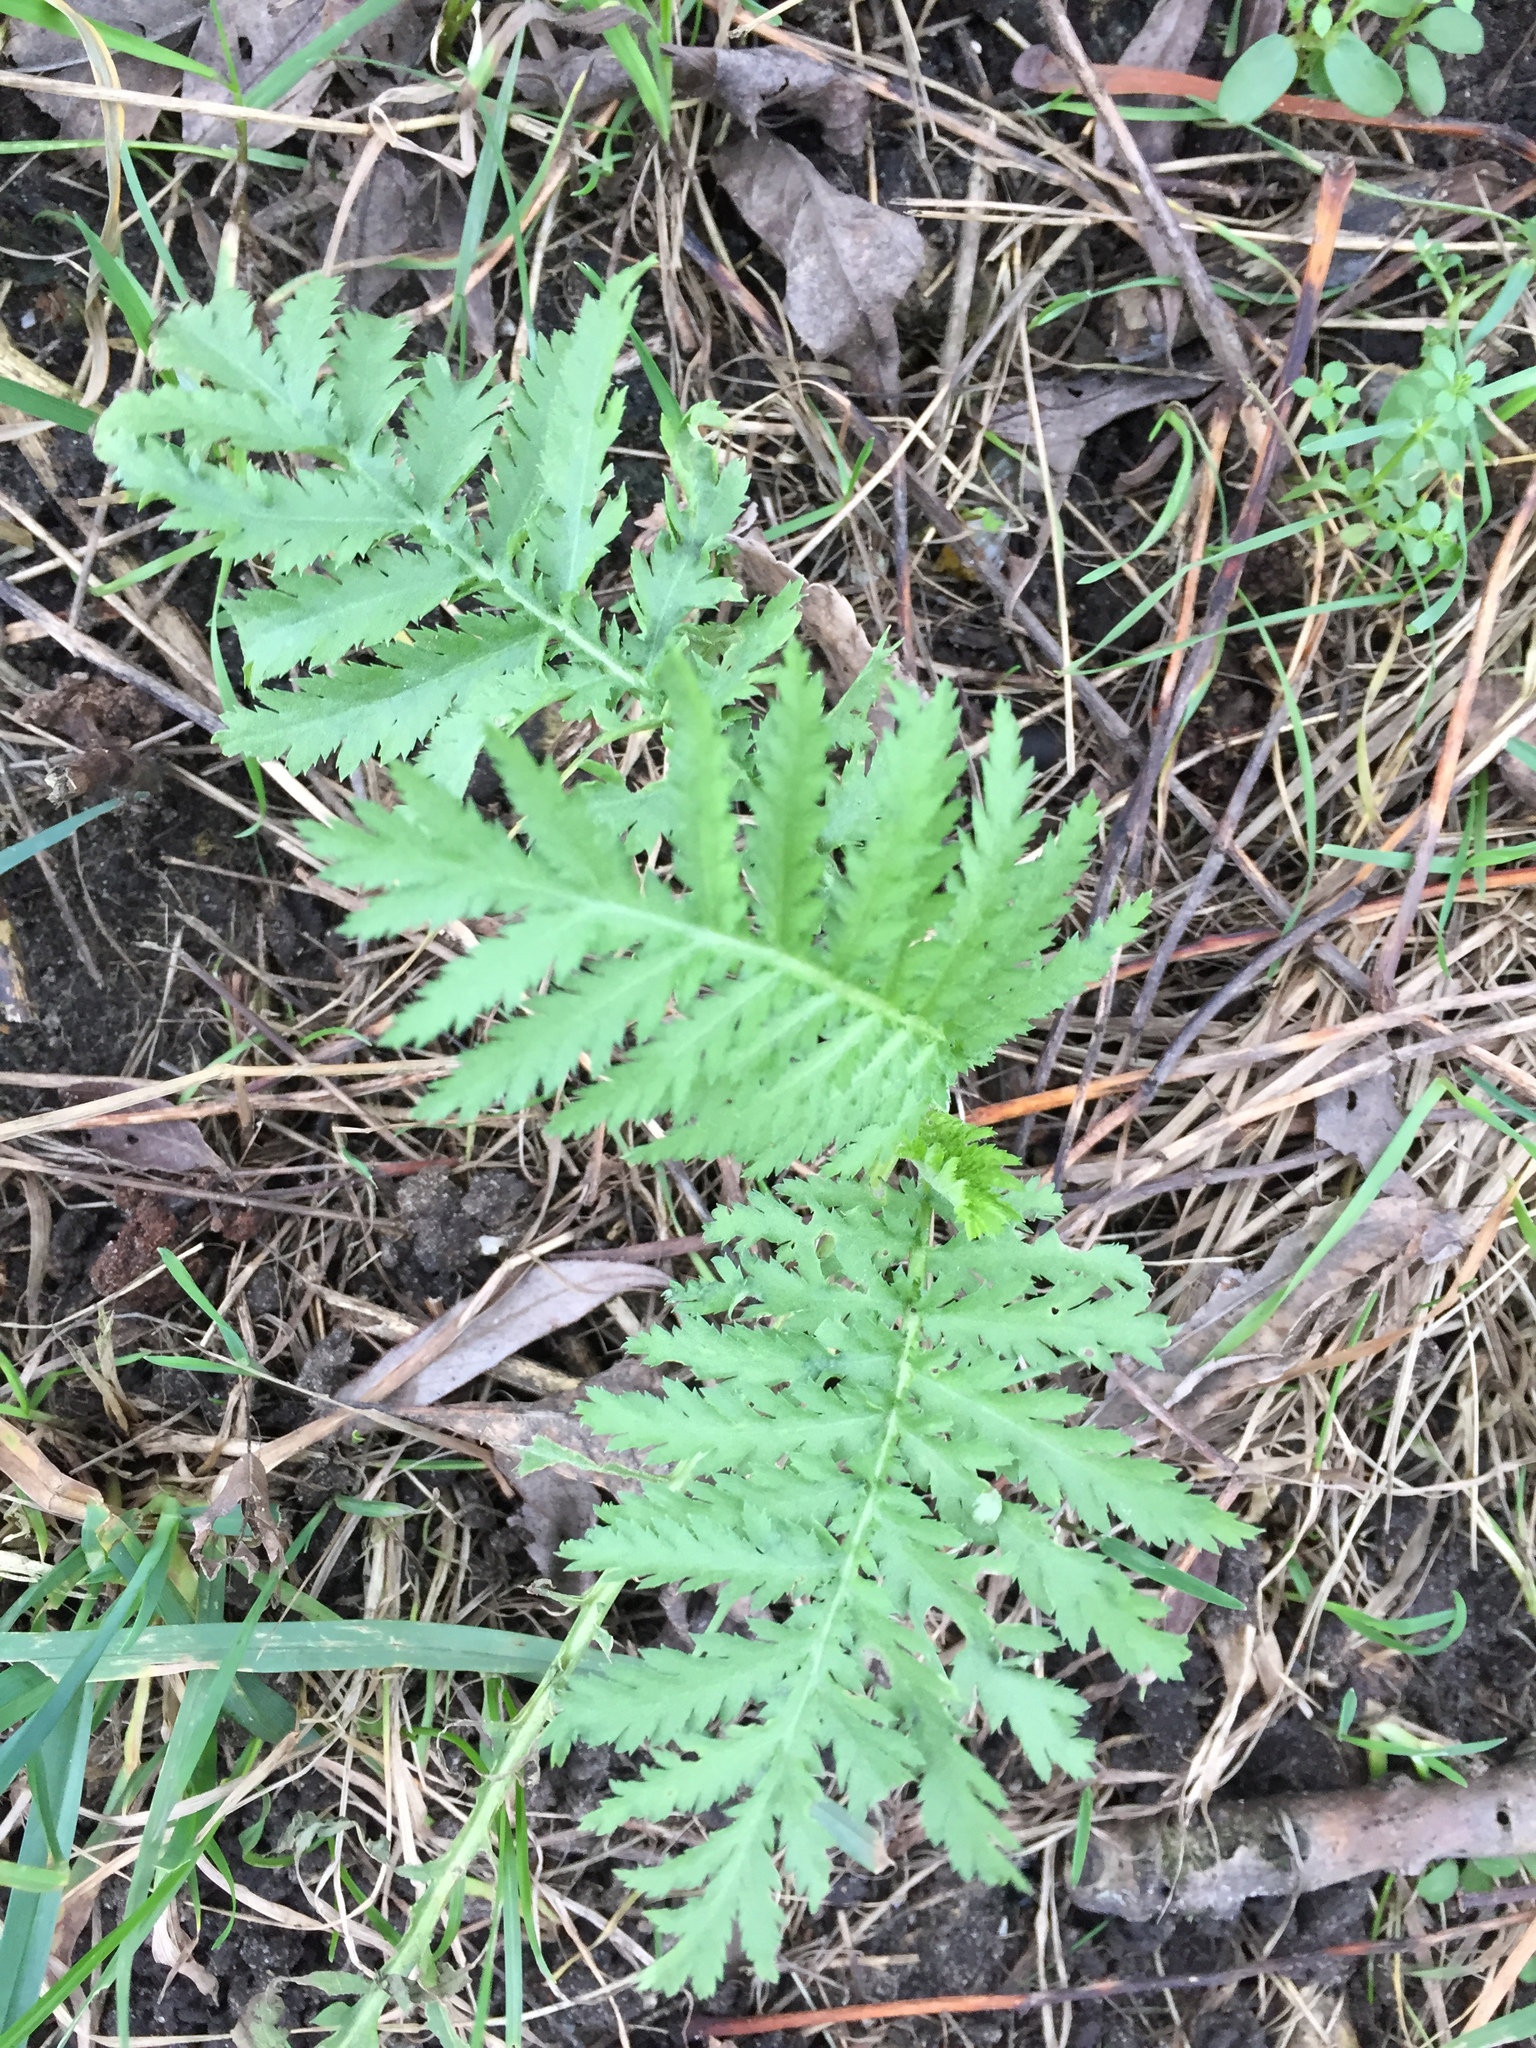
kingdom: Plantae
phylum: Tracheophyta
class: Magnoliopsida
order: Asterales
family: Asteraceae
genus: Tanacetum
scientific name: Tanacetum vulgare
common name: Common tansy
